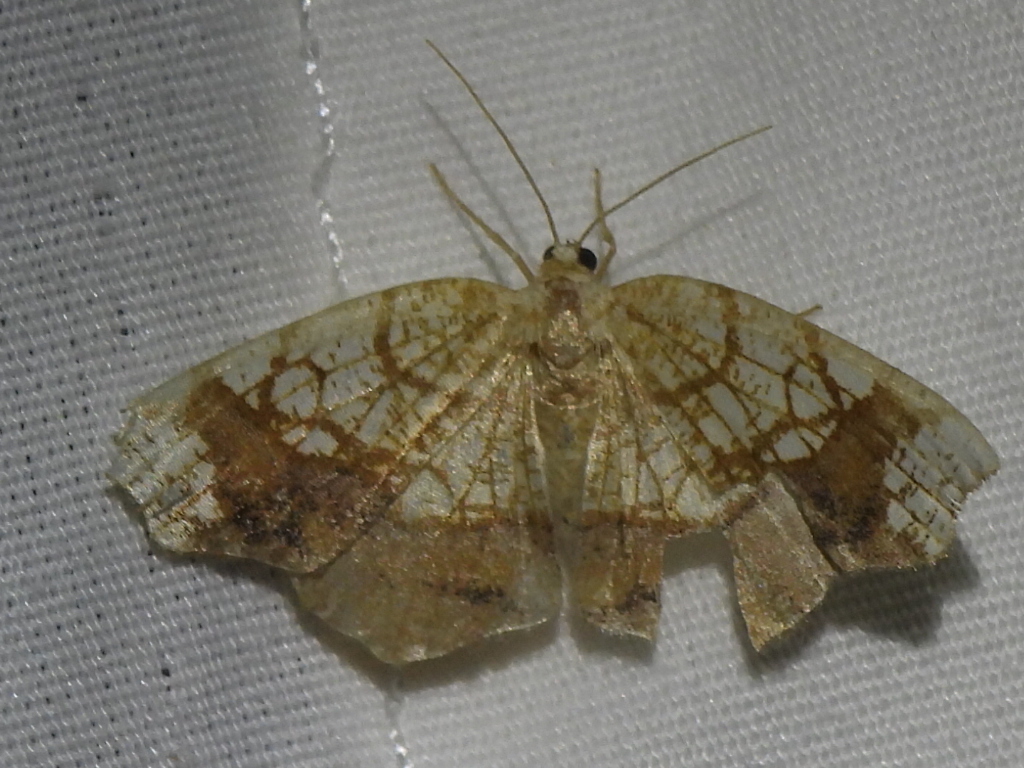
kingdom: Animalia
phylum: Arthropoda
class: Insecta
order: Lepidoptera
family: Geometridae
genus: Nematocampa
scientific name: Nematocampa resistaria
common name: Horned spanworm moth
